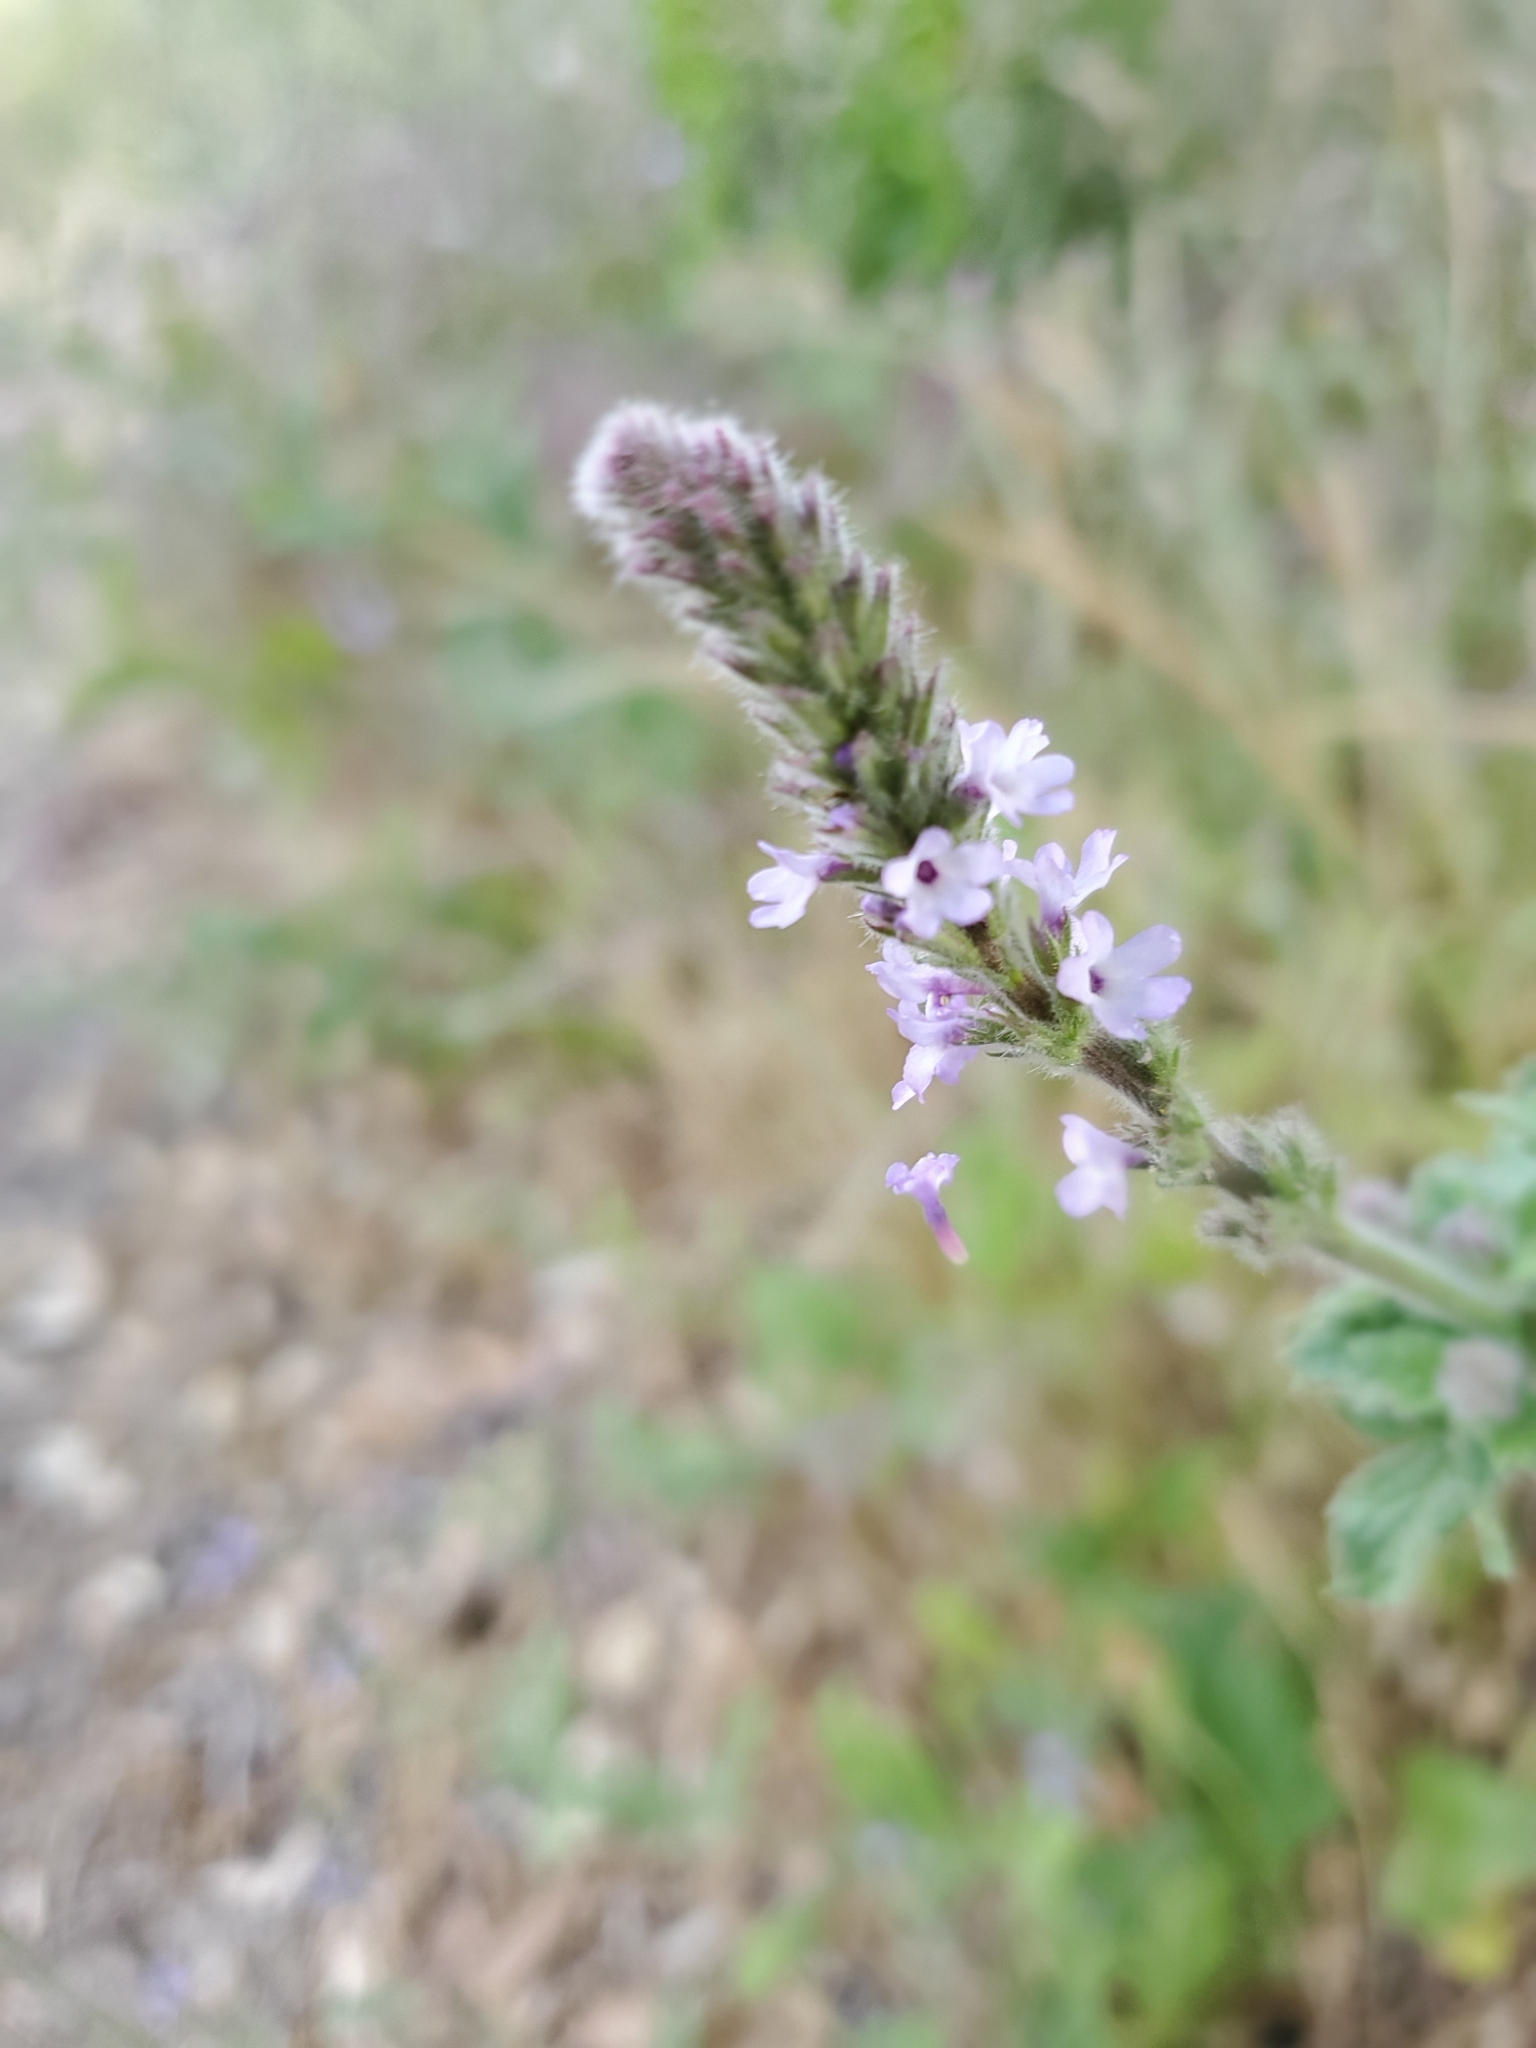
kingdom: Plantae
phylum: Tracheophyta
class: Magnoliopsida
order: Lamiales
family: Verbenaceae
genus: Verbena
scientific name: Verbena lasiostachys
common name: Vervain
